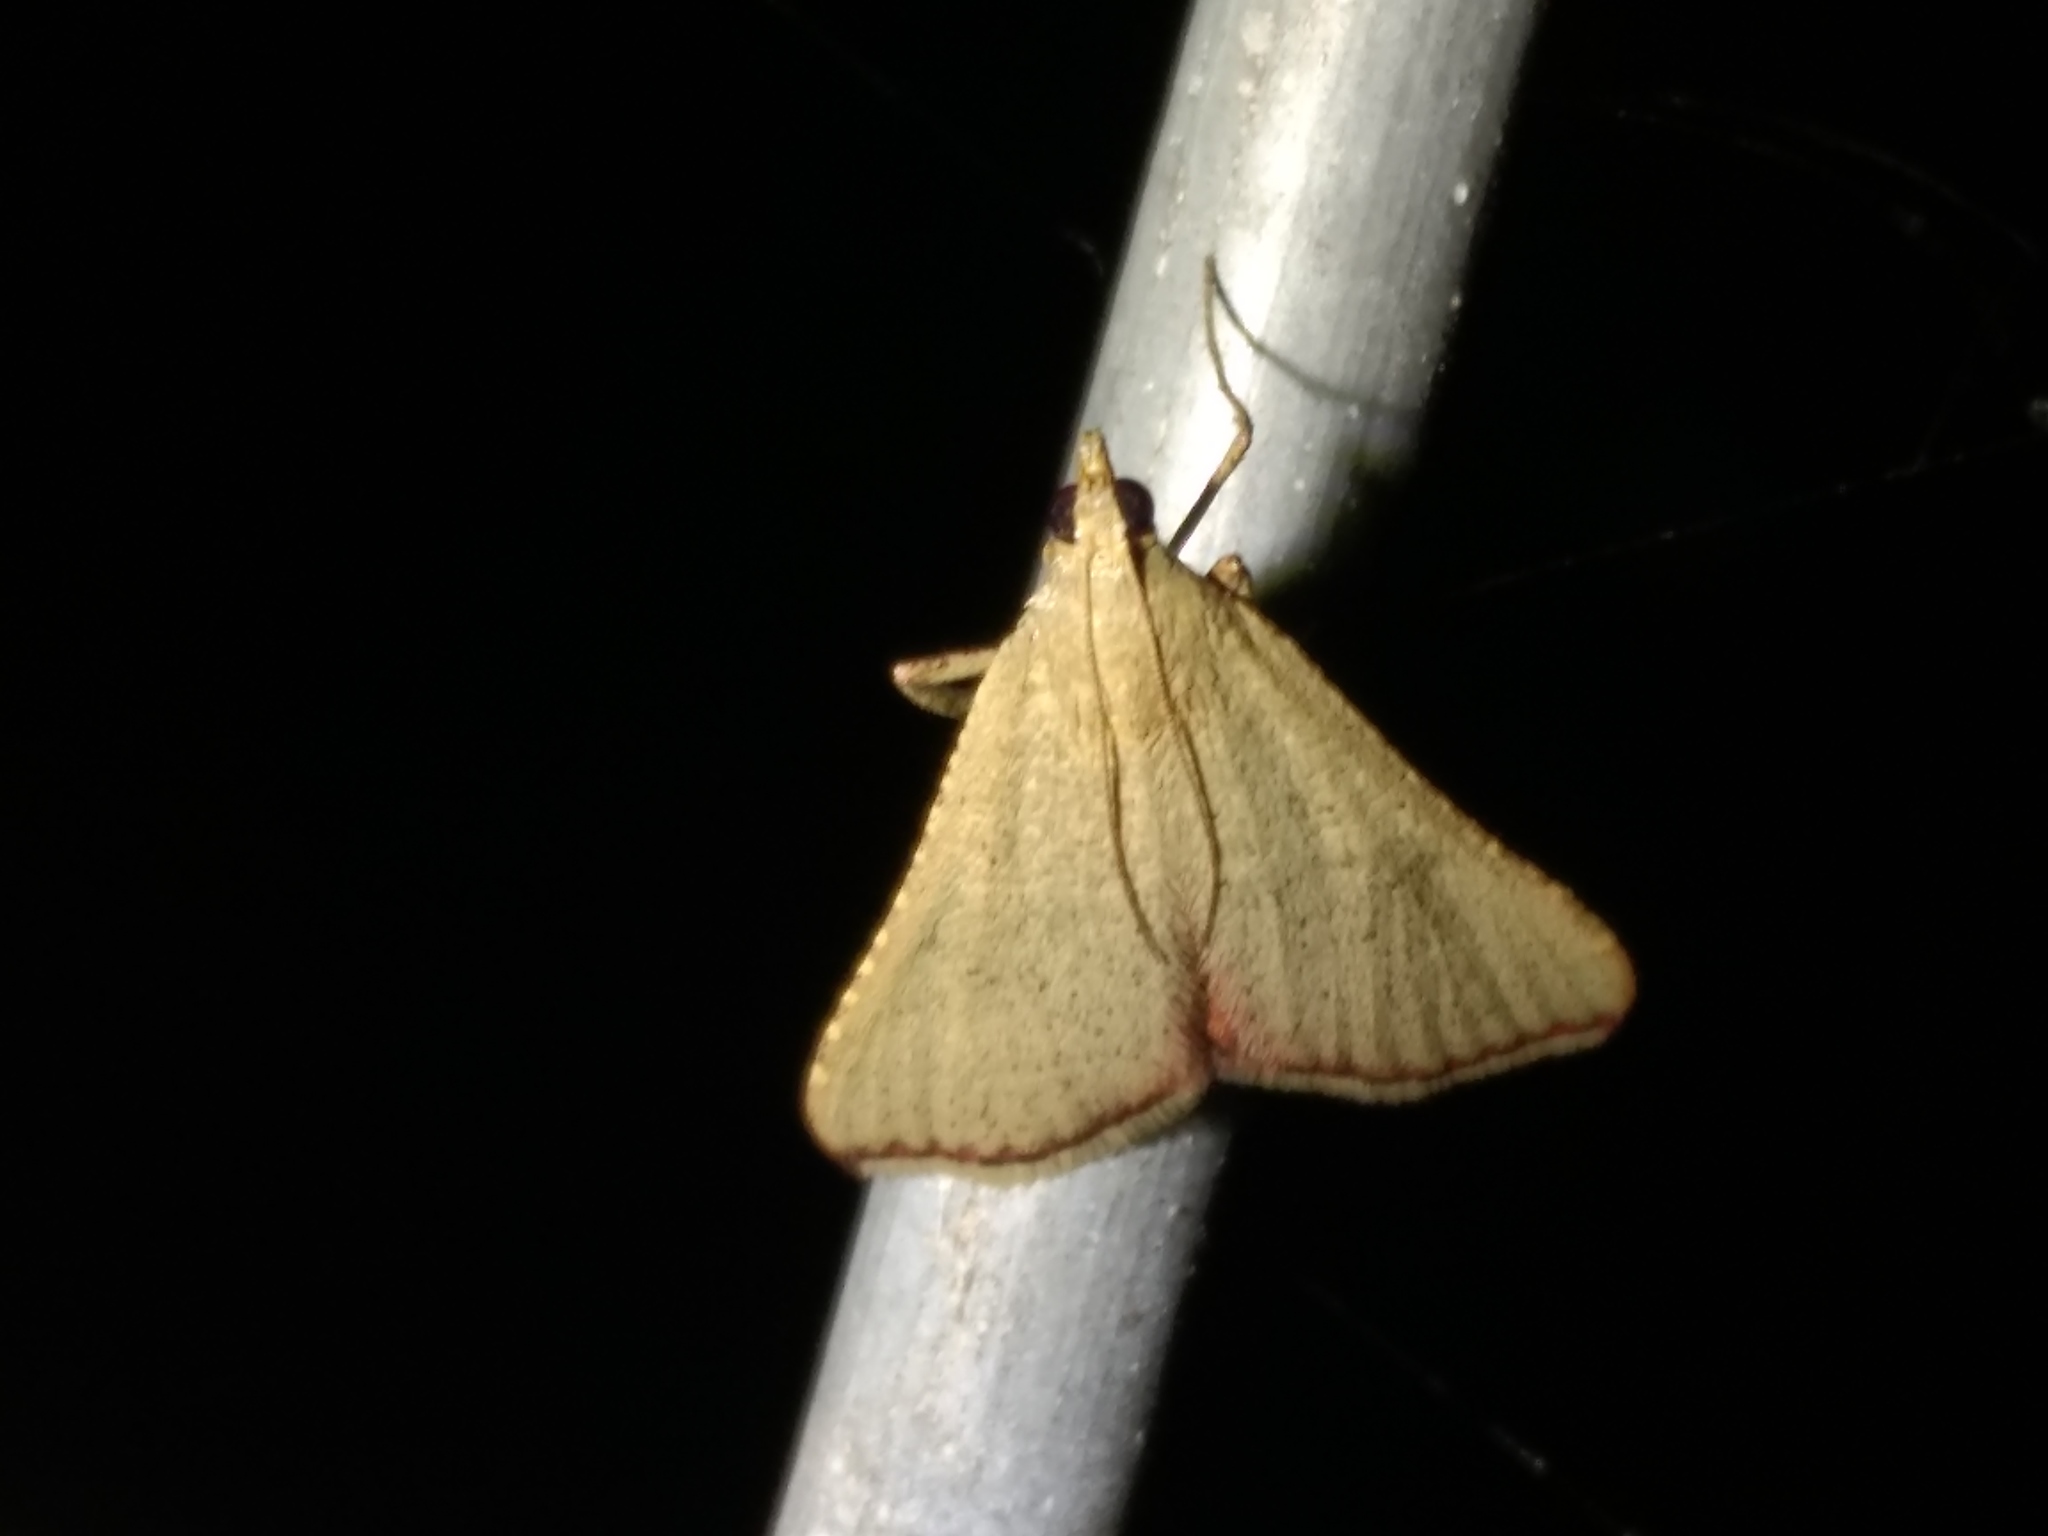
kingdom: Animalia
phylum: Arthropoda
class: Insecta
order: Lepidoptera
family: Pyralidae
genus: Endotricha
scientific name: Endotricha pyrosalis
